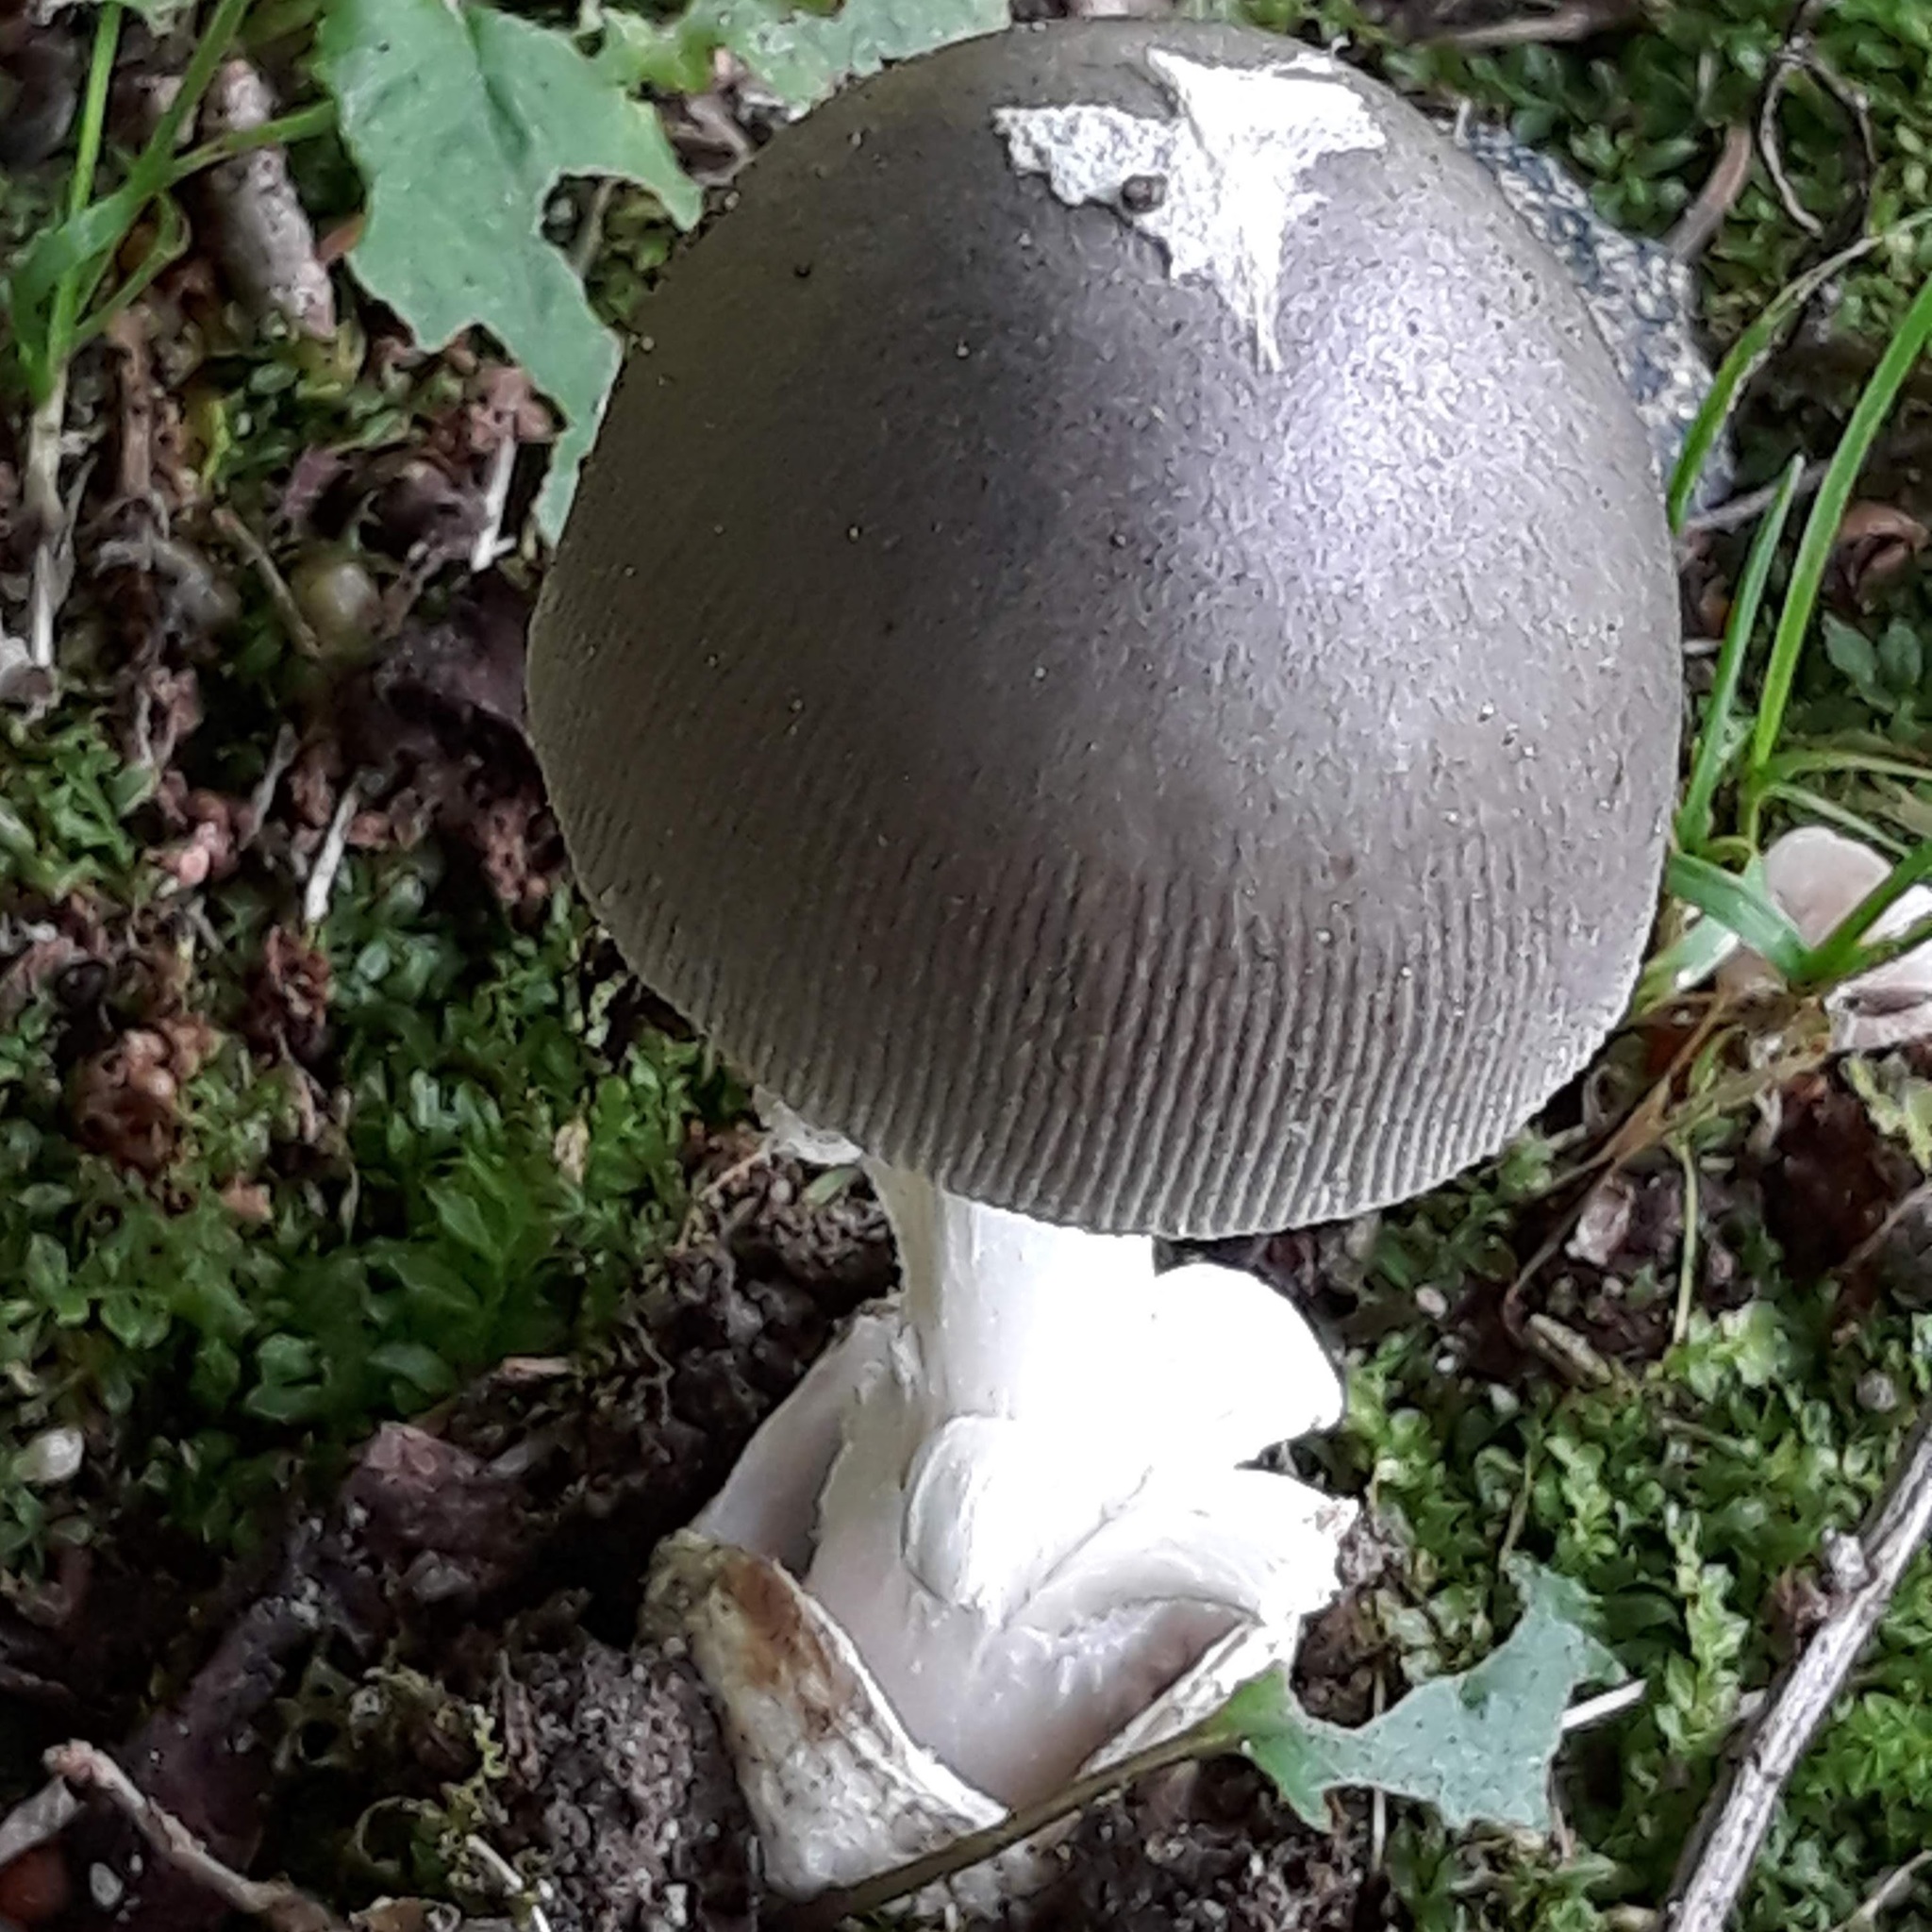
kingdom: Fungi
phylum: Basidiomycota
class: Agaricomycetes
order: Agaricales
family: Amanitaceae
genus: Amanita
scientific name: Amanita
